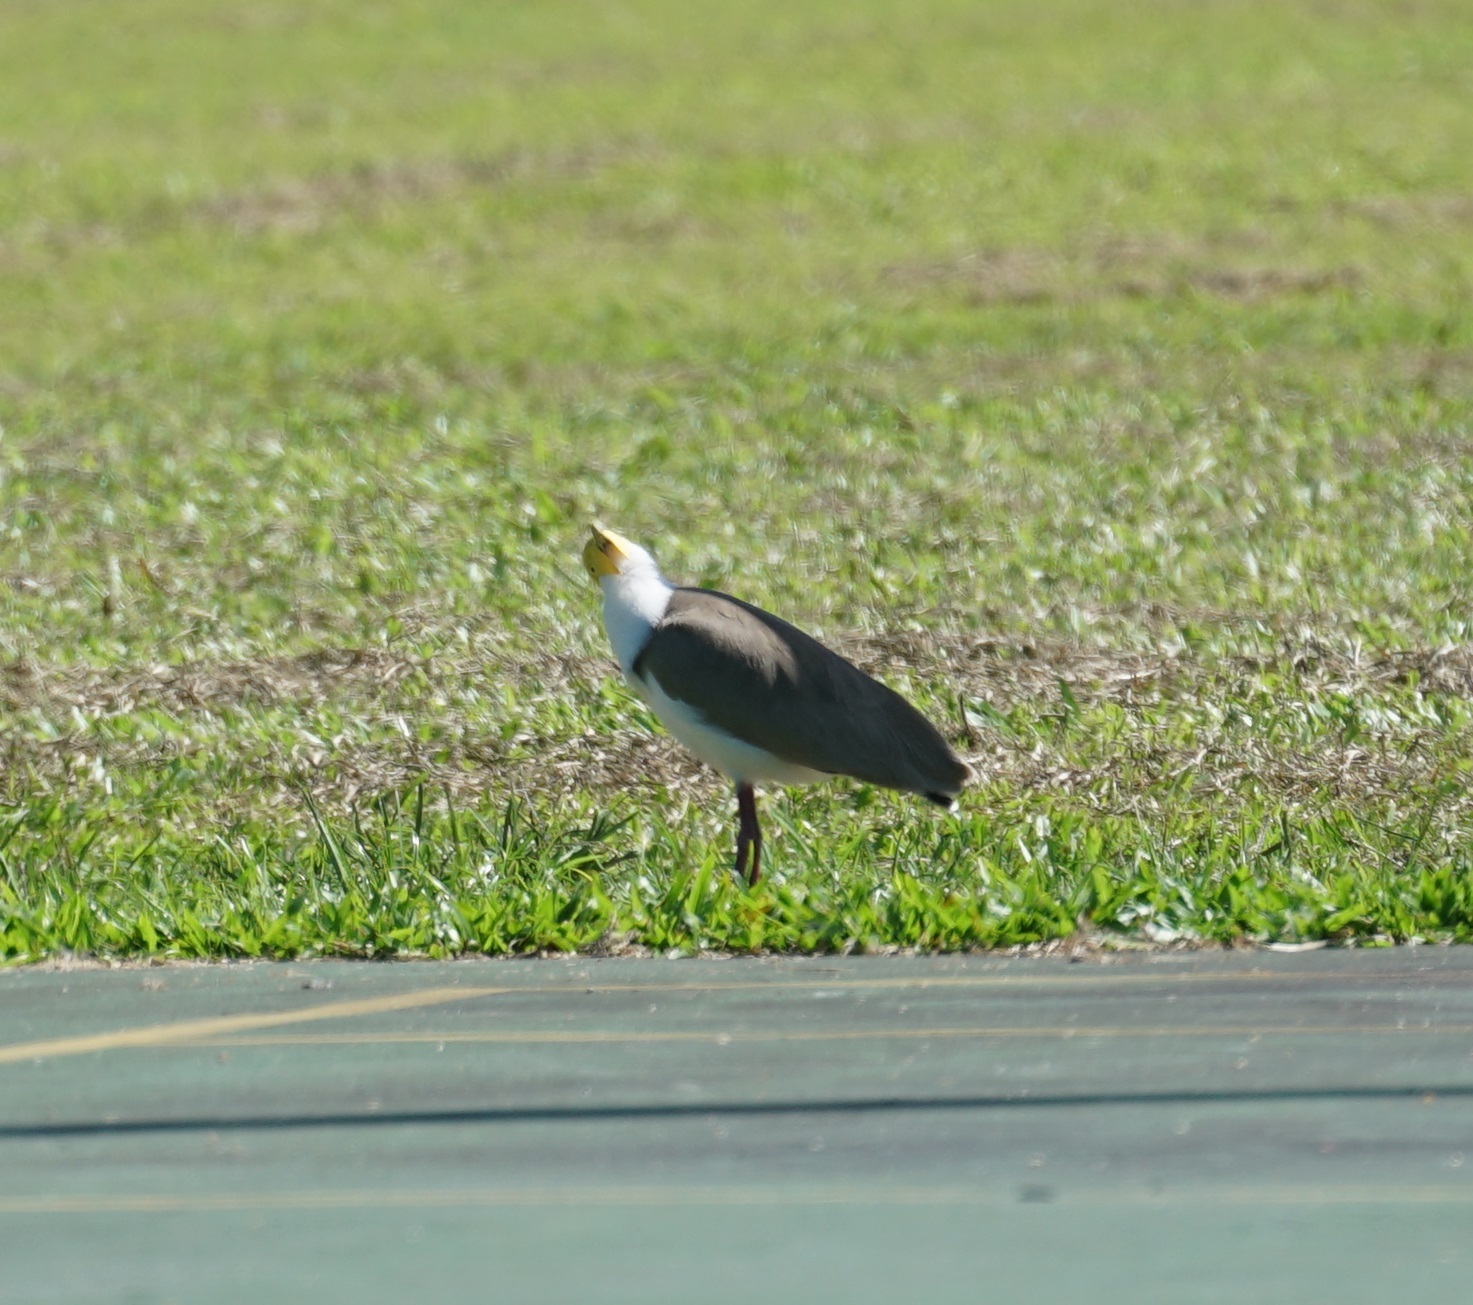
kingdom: Animalia
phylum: Chordata
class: Aves
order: Charadriiformes
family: Charadriidae
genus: Vanellus
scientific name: Vanellus miles
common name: Masked lapwing
